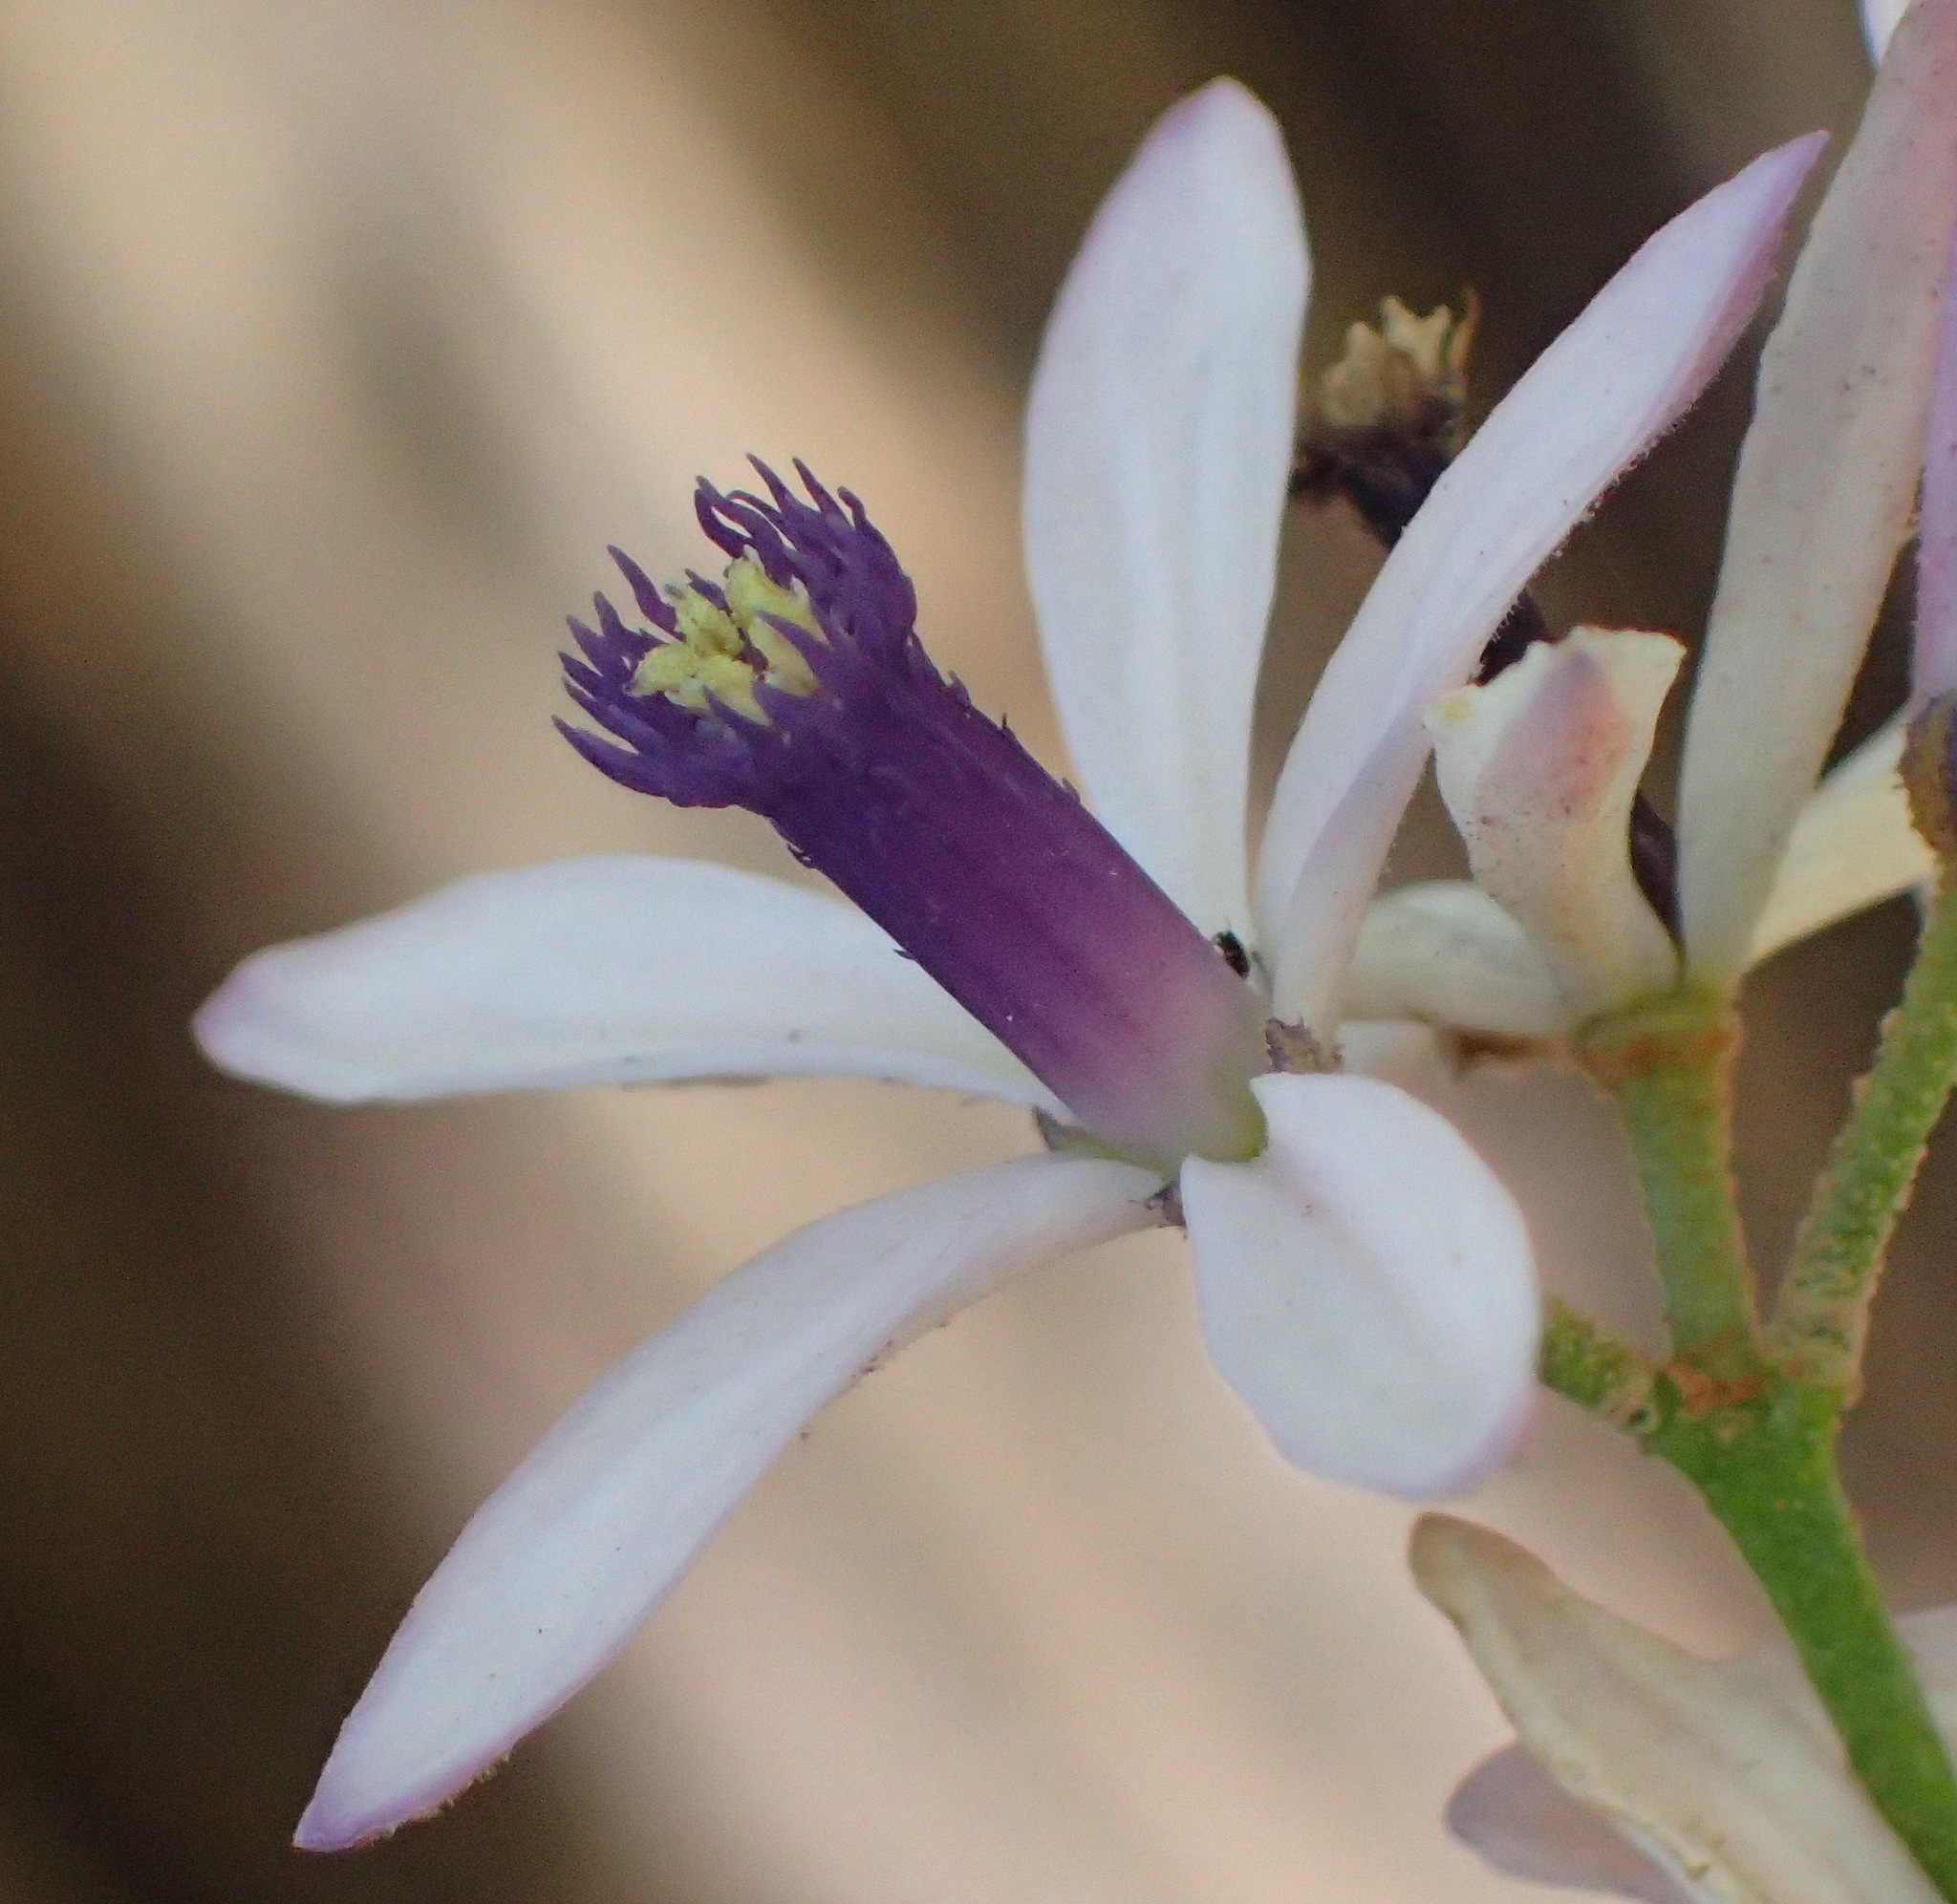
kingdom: Plantae
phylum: Tracheophyta
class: Magnoliopsida
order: Sapindales
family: Meliaceae
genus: Melia
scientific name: Melia azedarach
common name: Chinaberrytree
